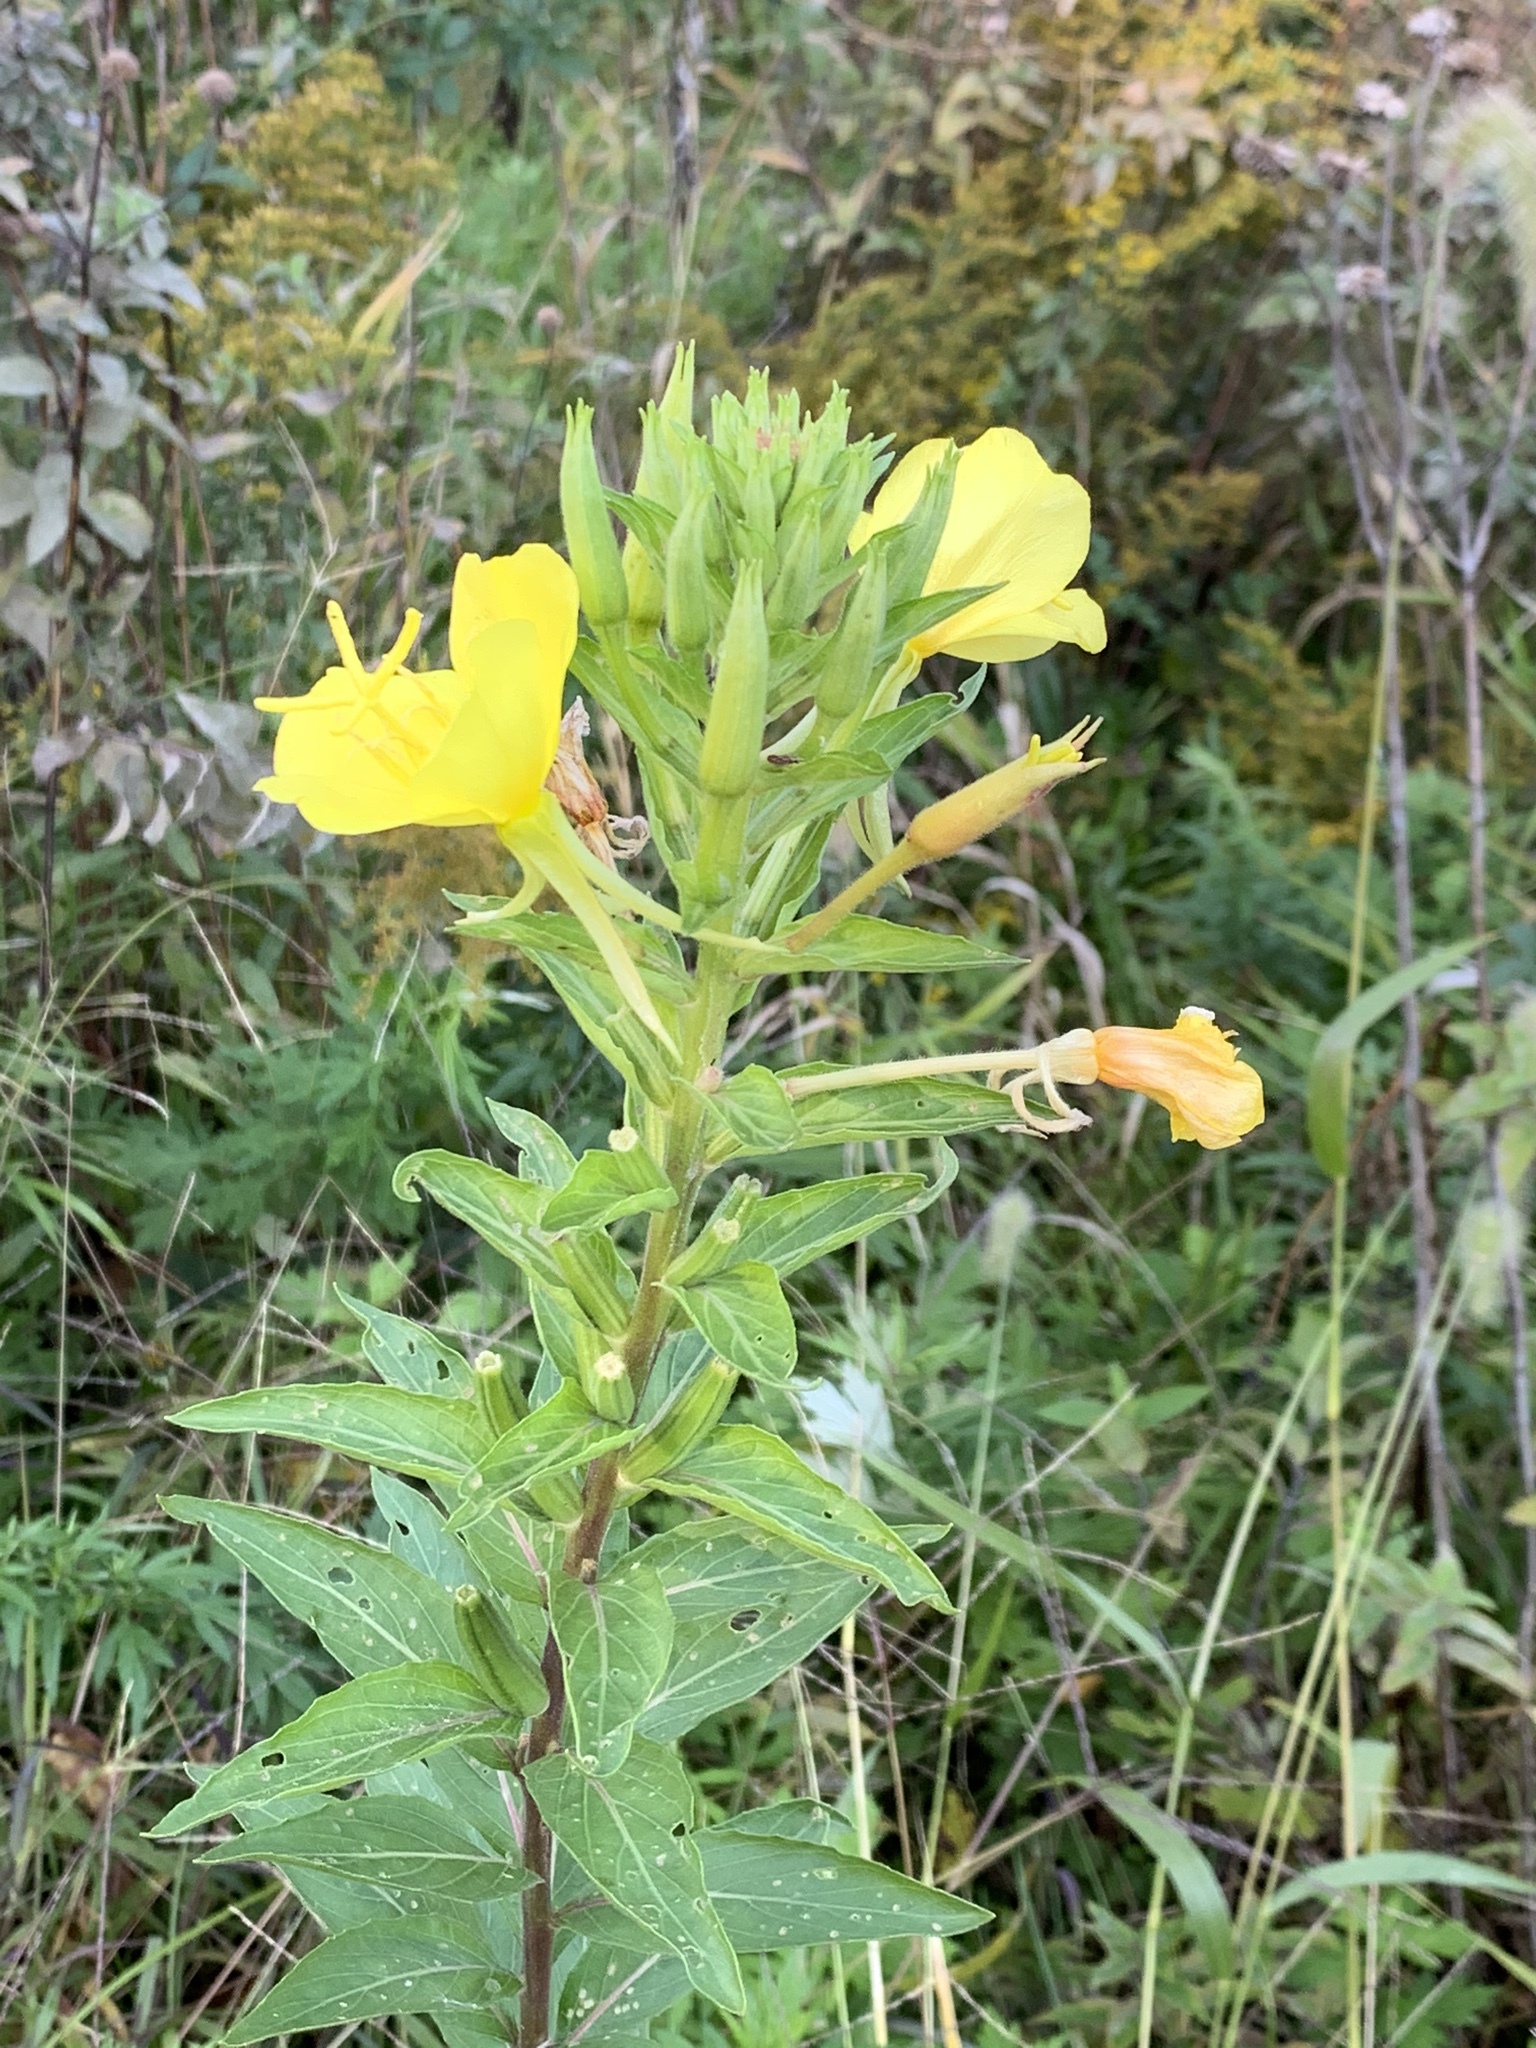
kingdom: Plantae
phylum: Tracheophyta
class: Magnoliopsida
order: Myrtales
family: Onagraceae
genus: Oenothera
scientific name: Oenothera biennis
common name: Common evening-primrose
